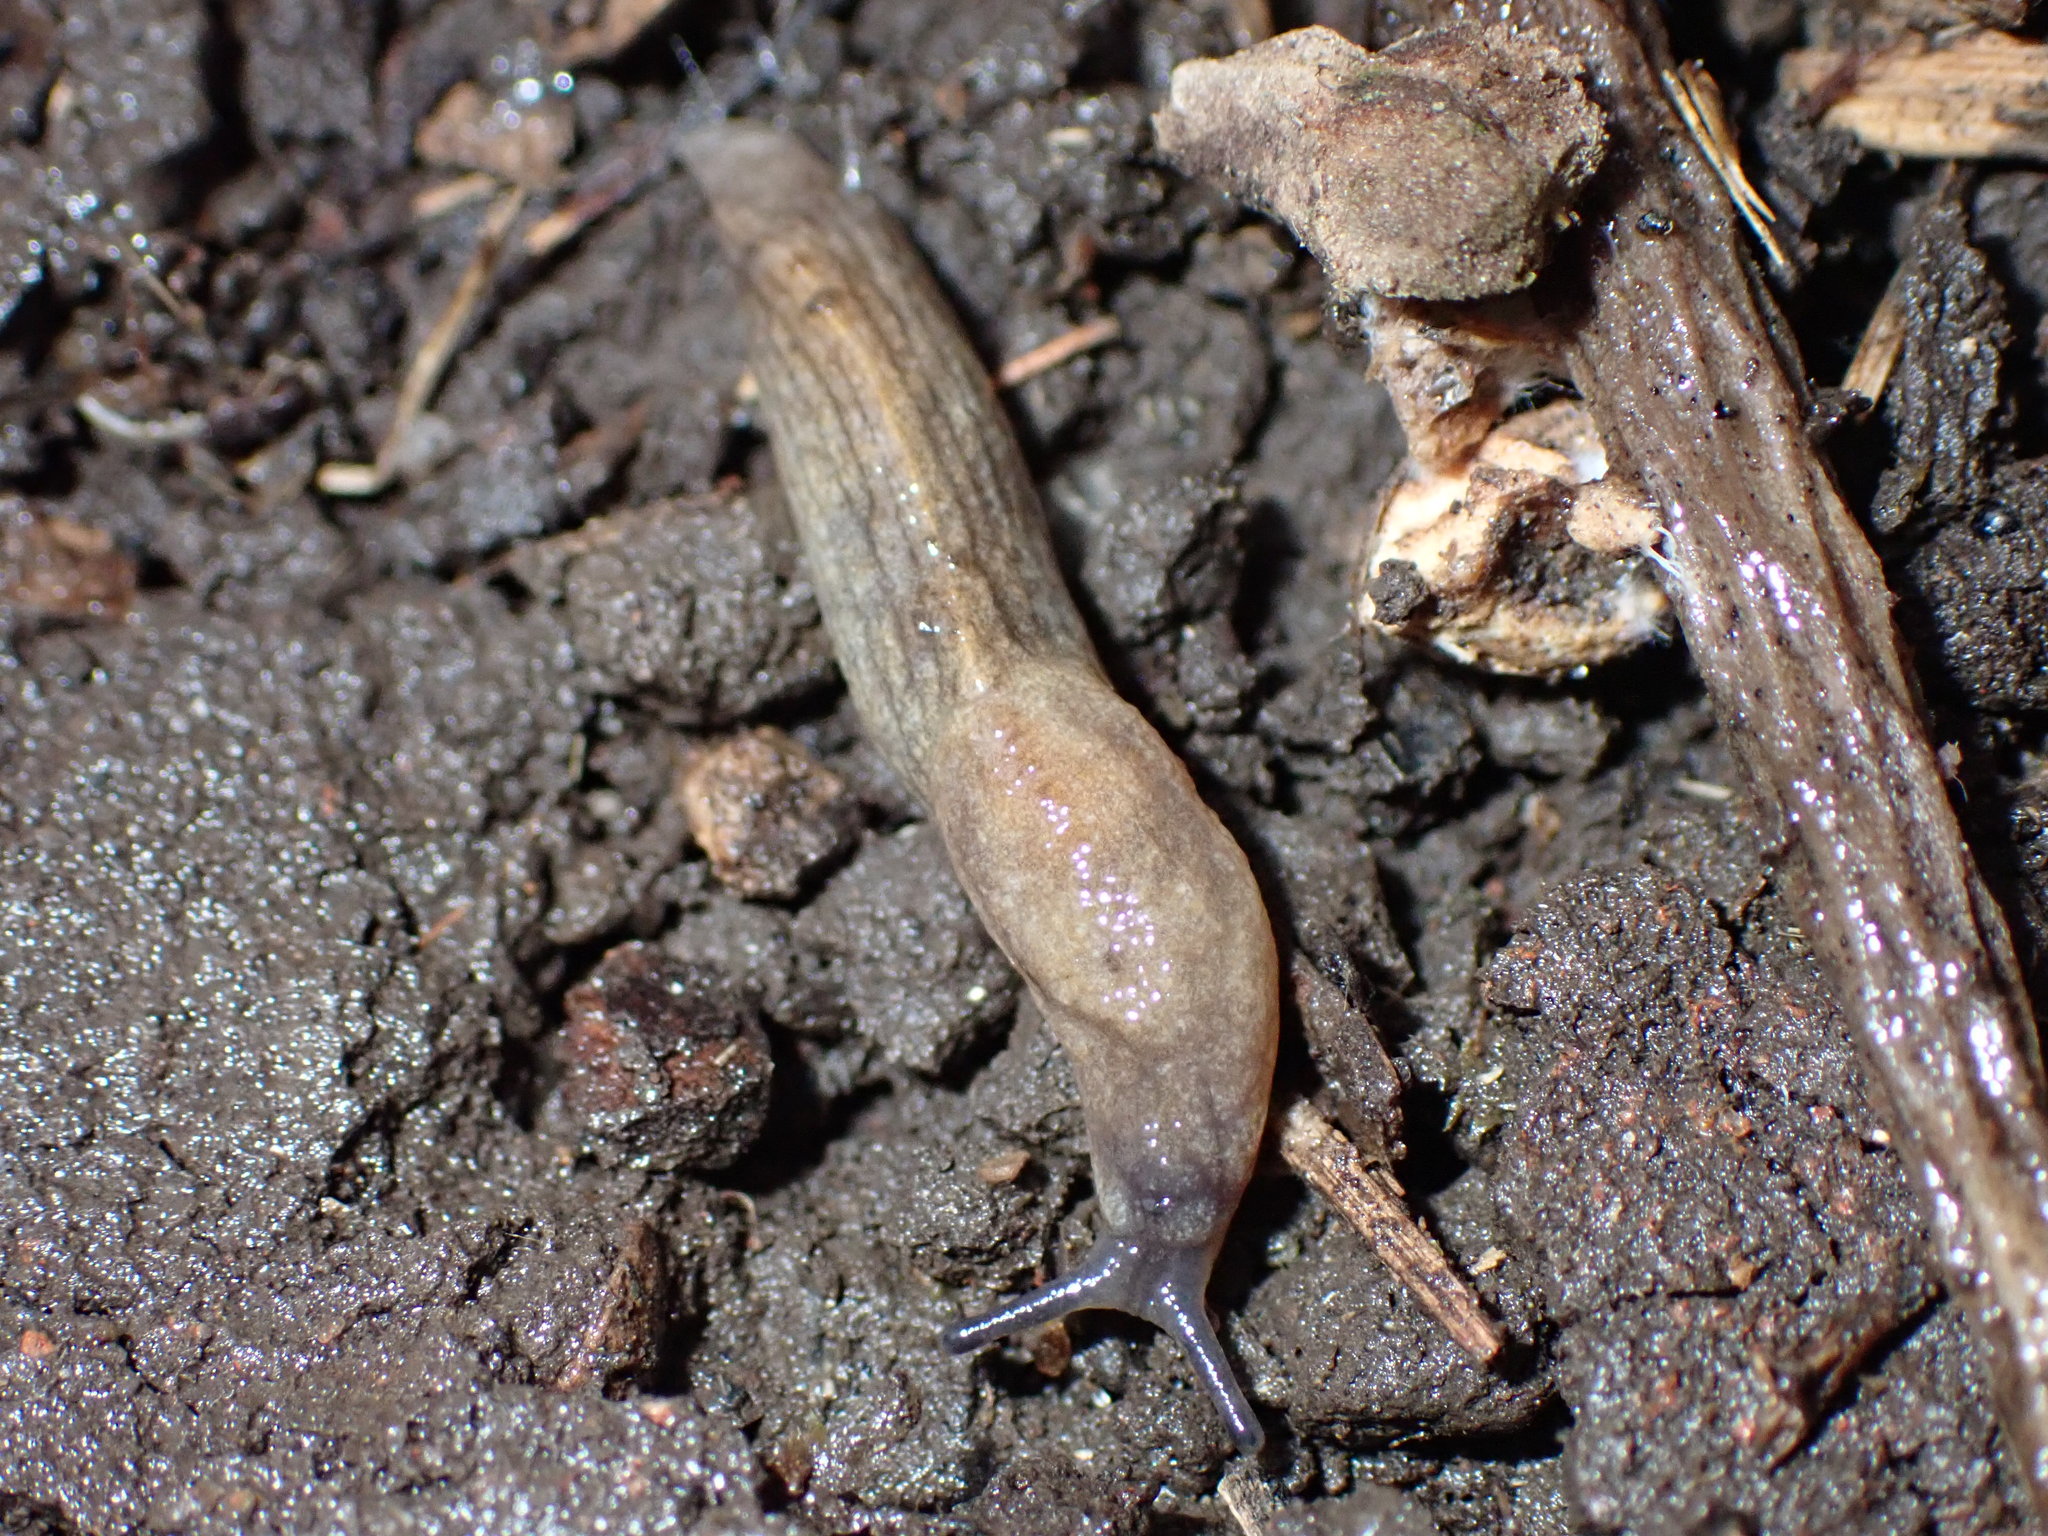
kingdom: Animalia
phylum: Mollusca
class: Gastropoda
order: Stylommatophora
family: Milacidae
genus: Milax
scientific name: Milax gagates
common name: Greenhouse slug
